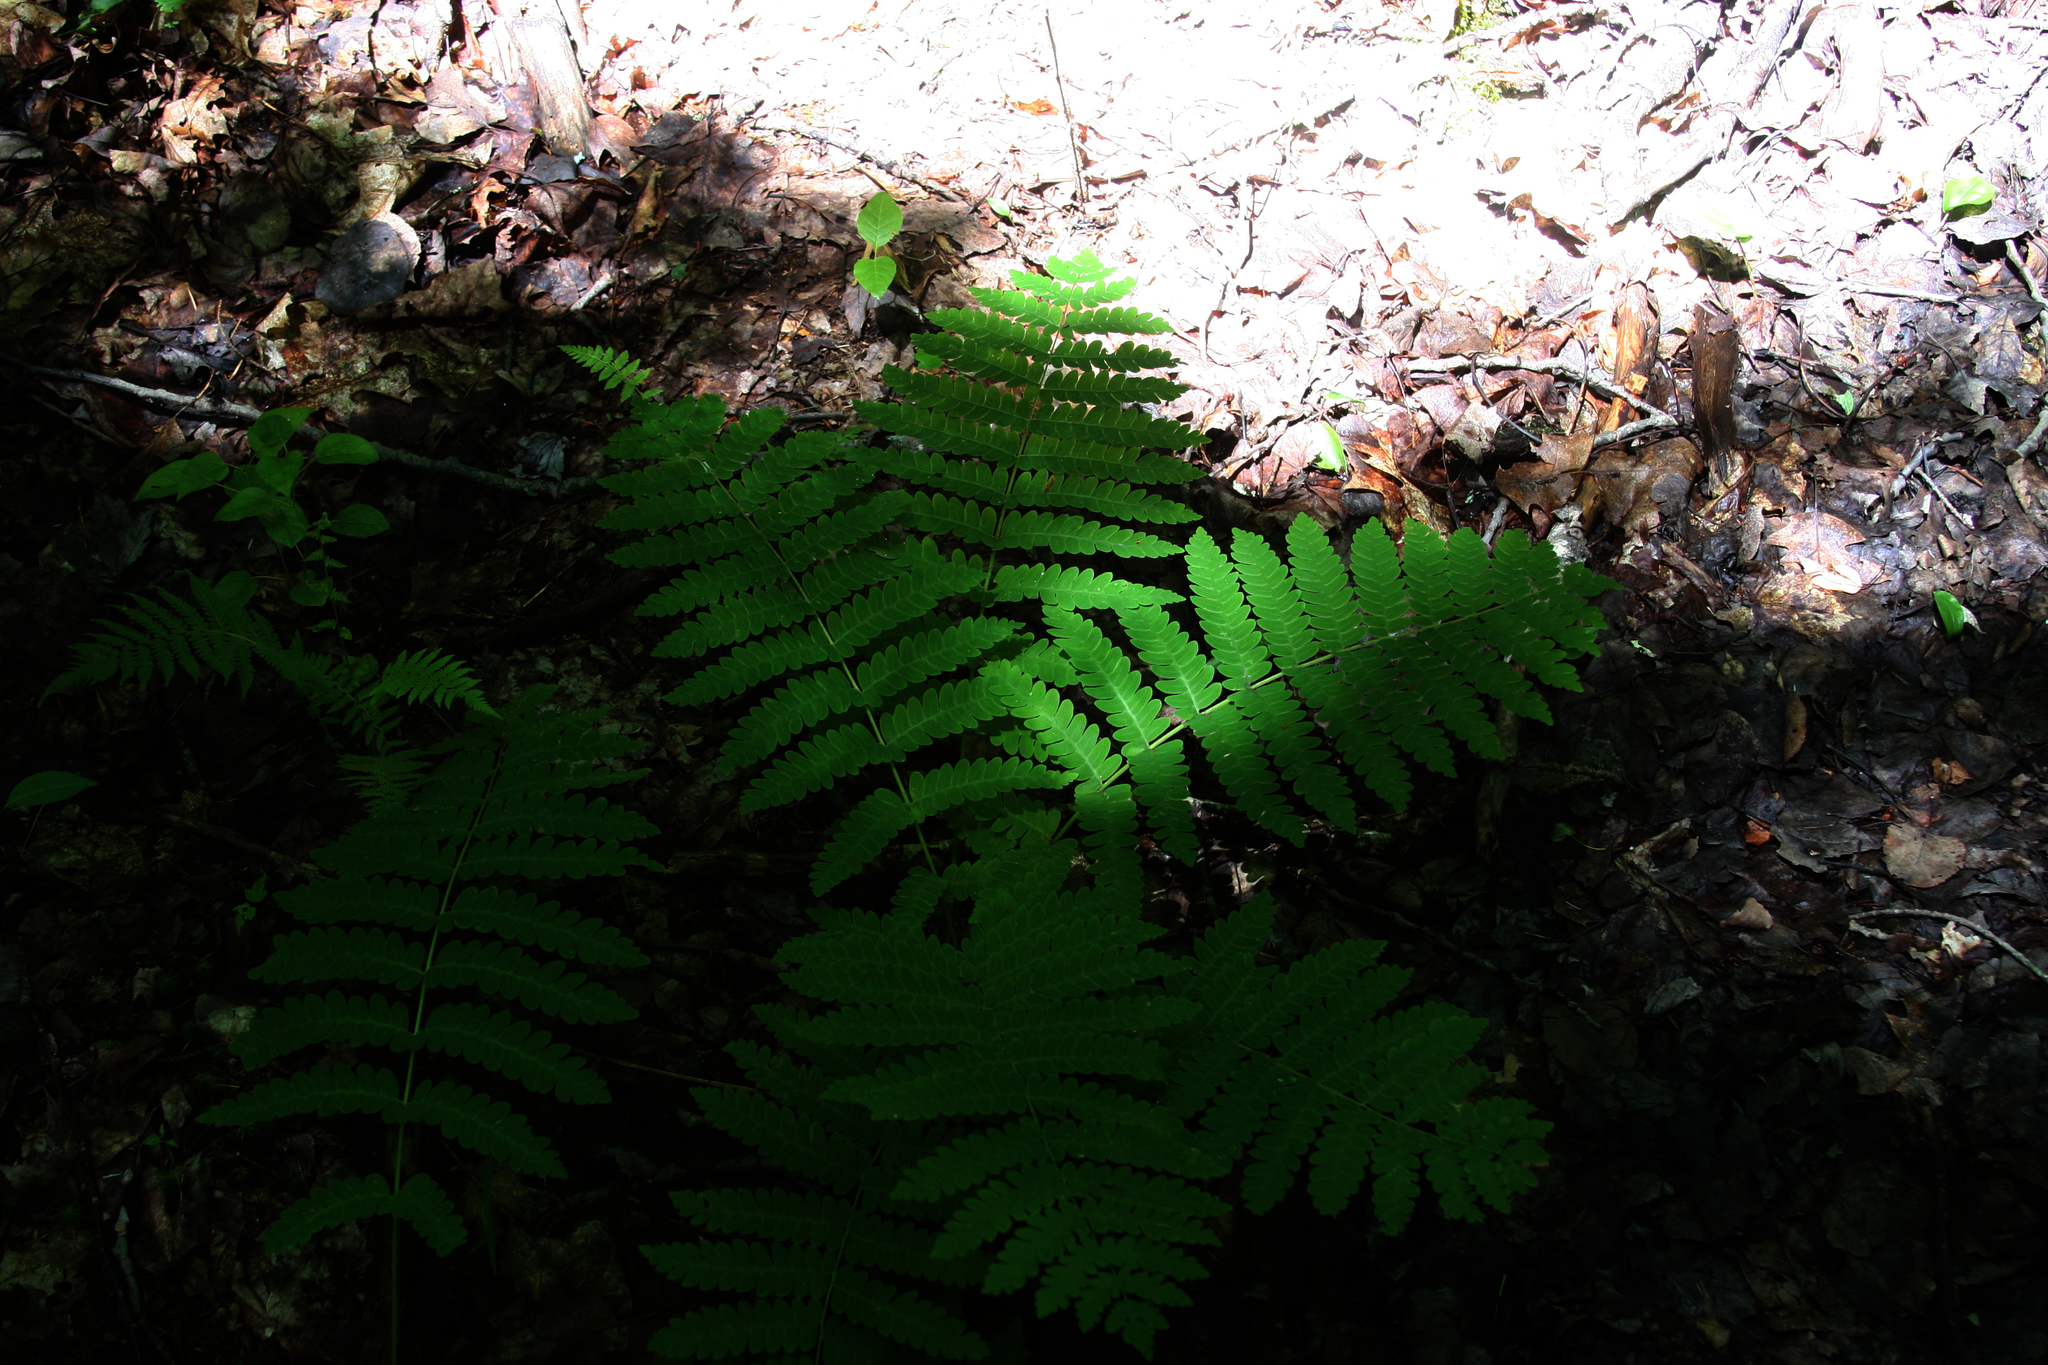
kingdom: Plantae
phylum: Tracheophyta
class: Polypodiopsida
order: Osmundales
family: Osmundaceae
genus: Claytosmunda
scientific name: Claytosmunda claytoniana
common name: Clayton's fern
